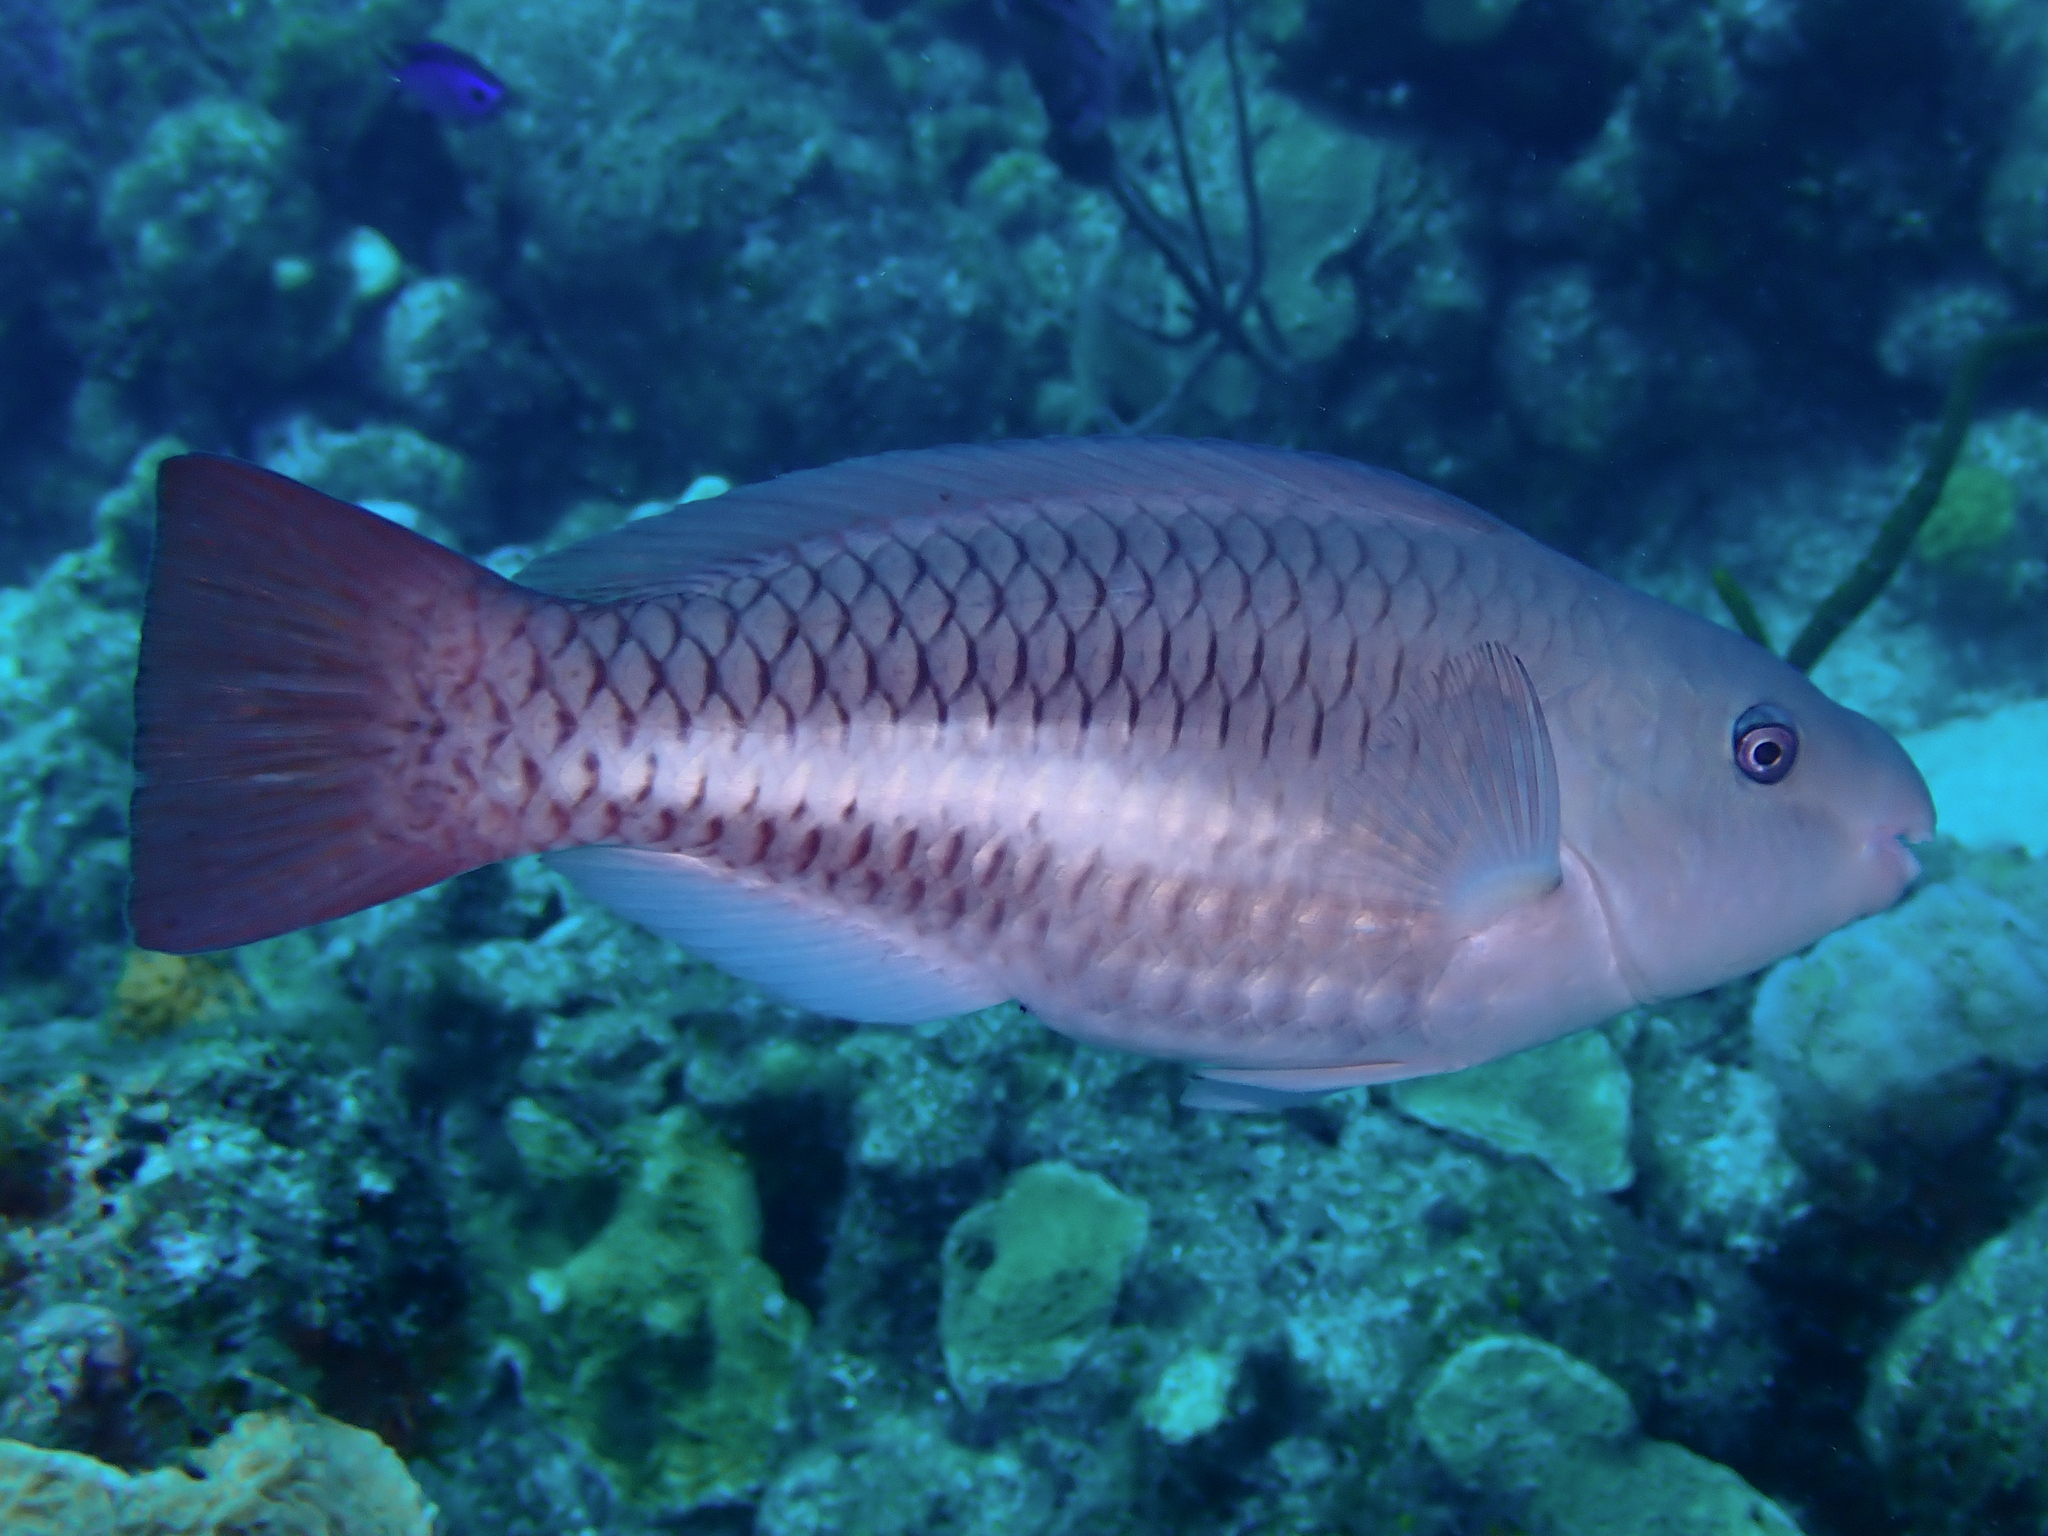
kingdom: Animalia
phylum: Chordata
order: Perciformes
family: Scaridae
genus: Scarus
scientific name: Scarus vetula
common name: Queen parrotfish
